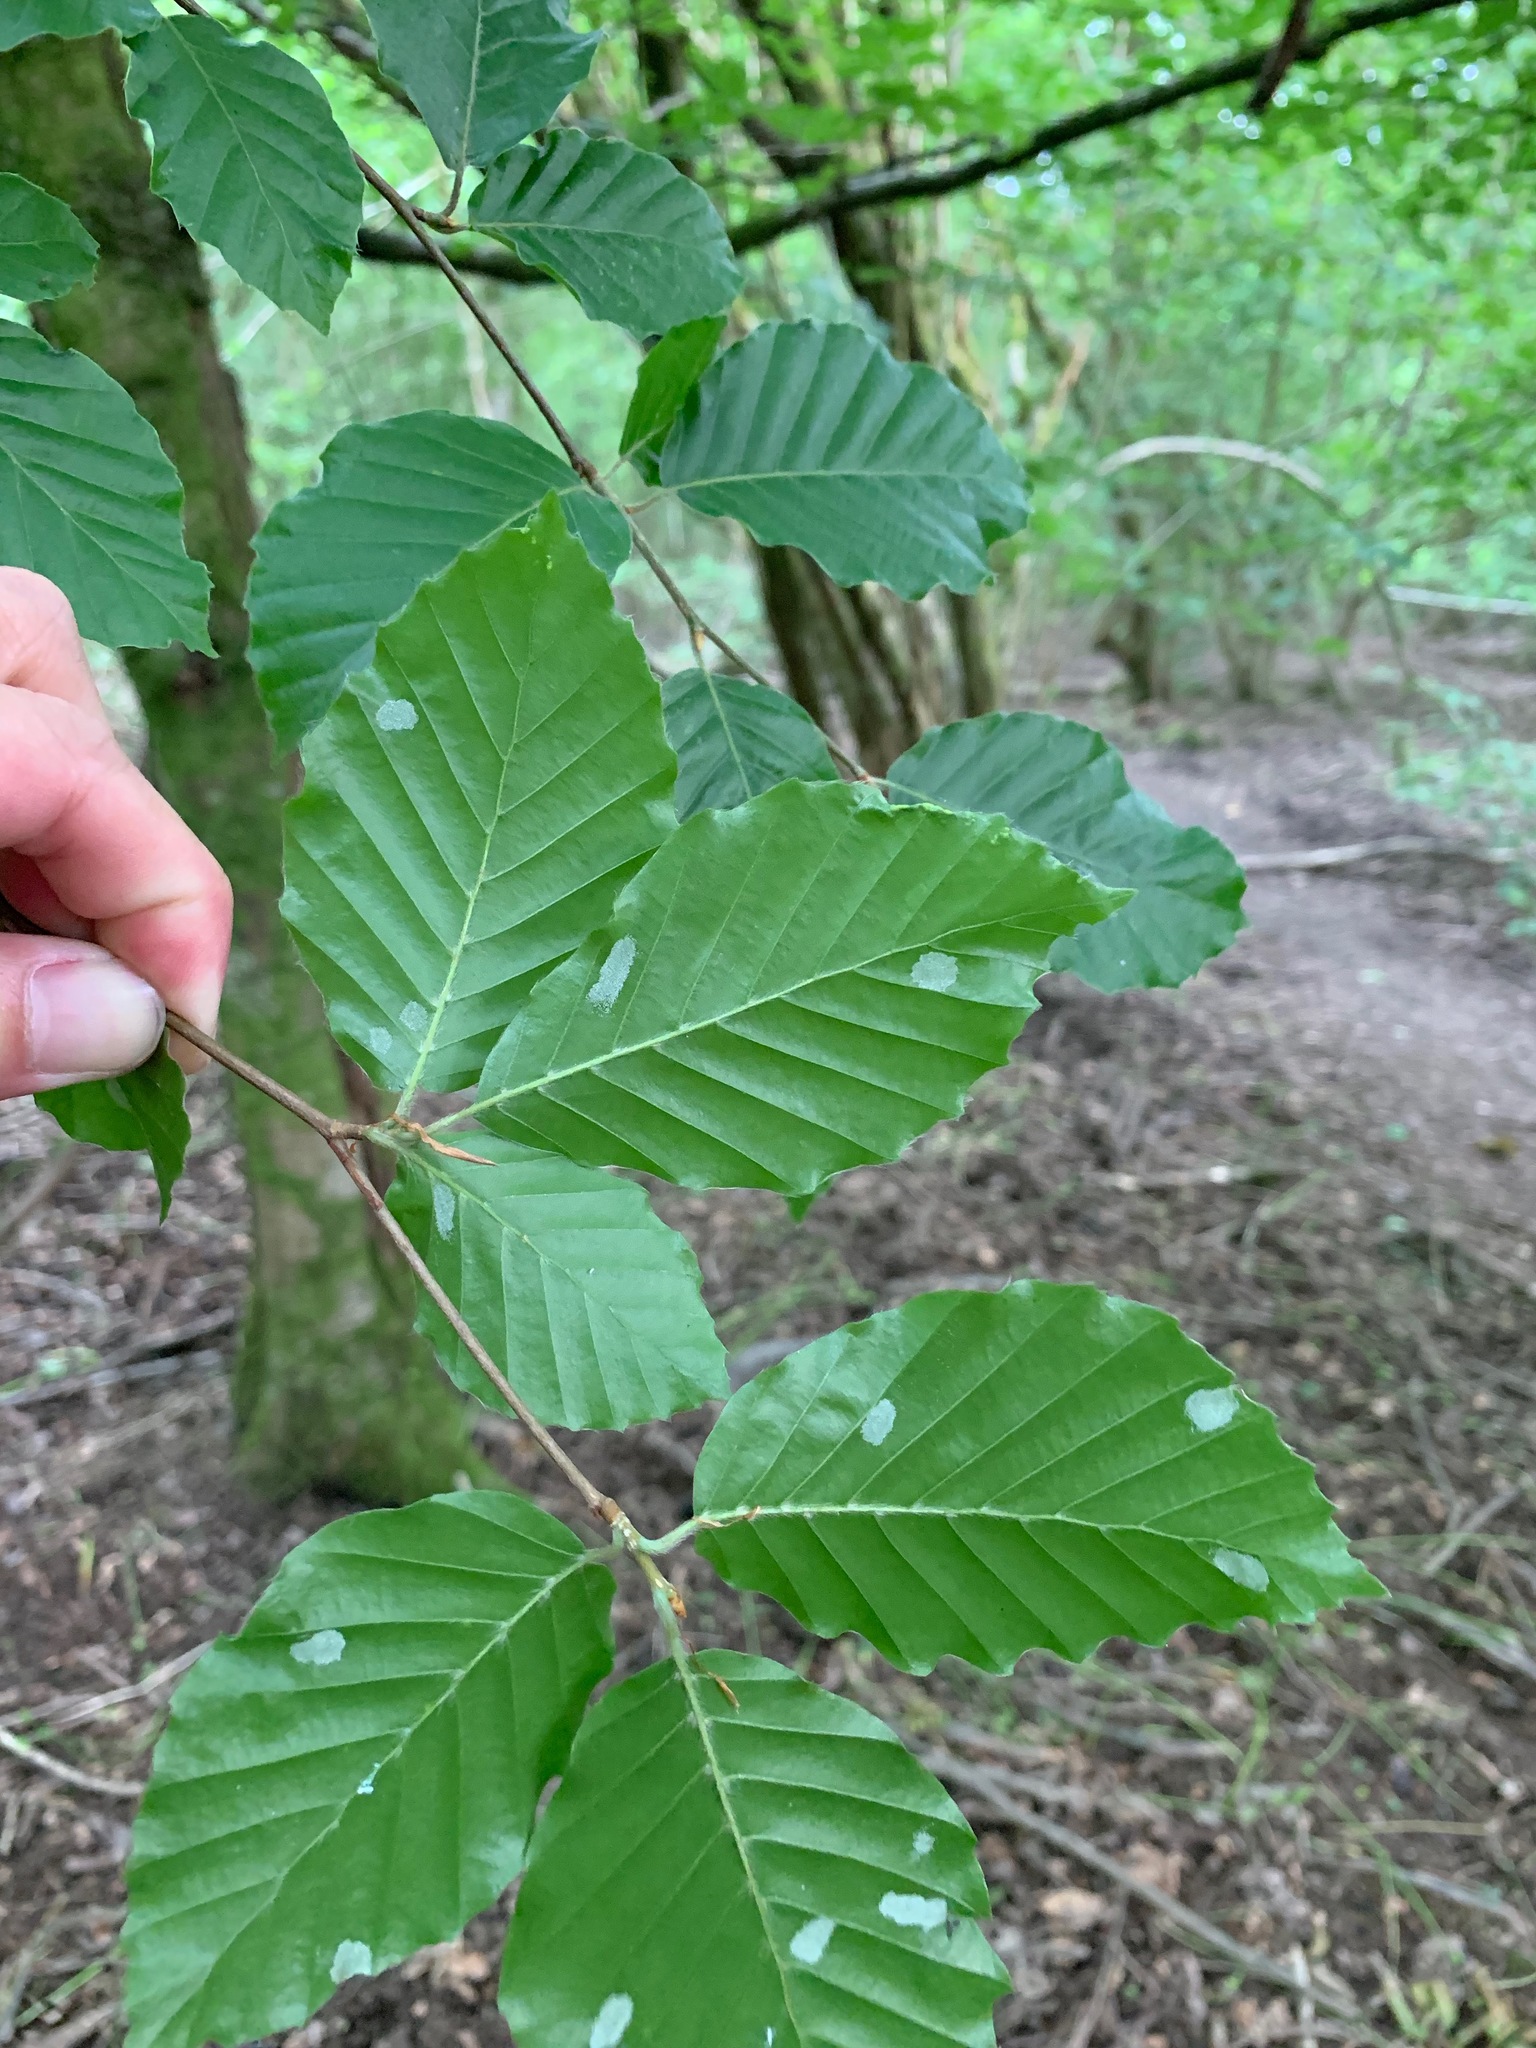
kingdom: Plantae
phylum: Tracheophyta
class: Magnoliopsida
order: Fagales
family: Fagaceae
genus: Fagus
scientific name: Fagus sylvatica
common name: Beech
